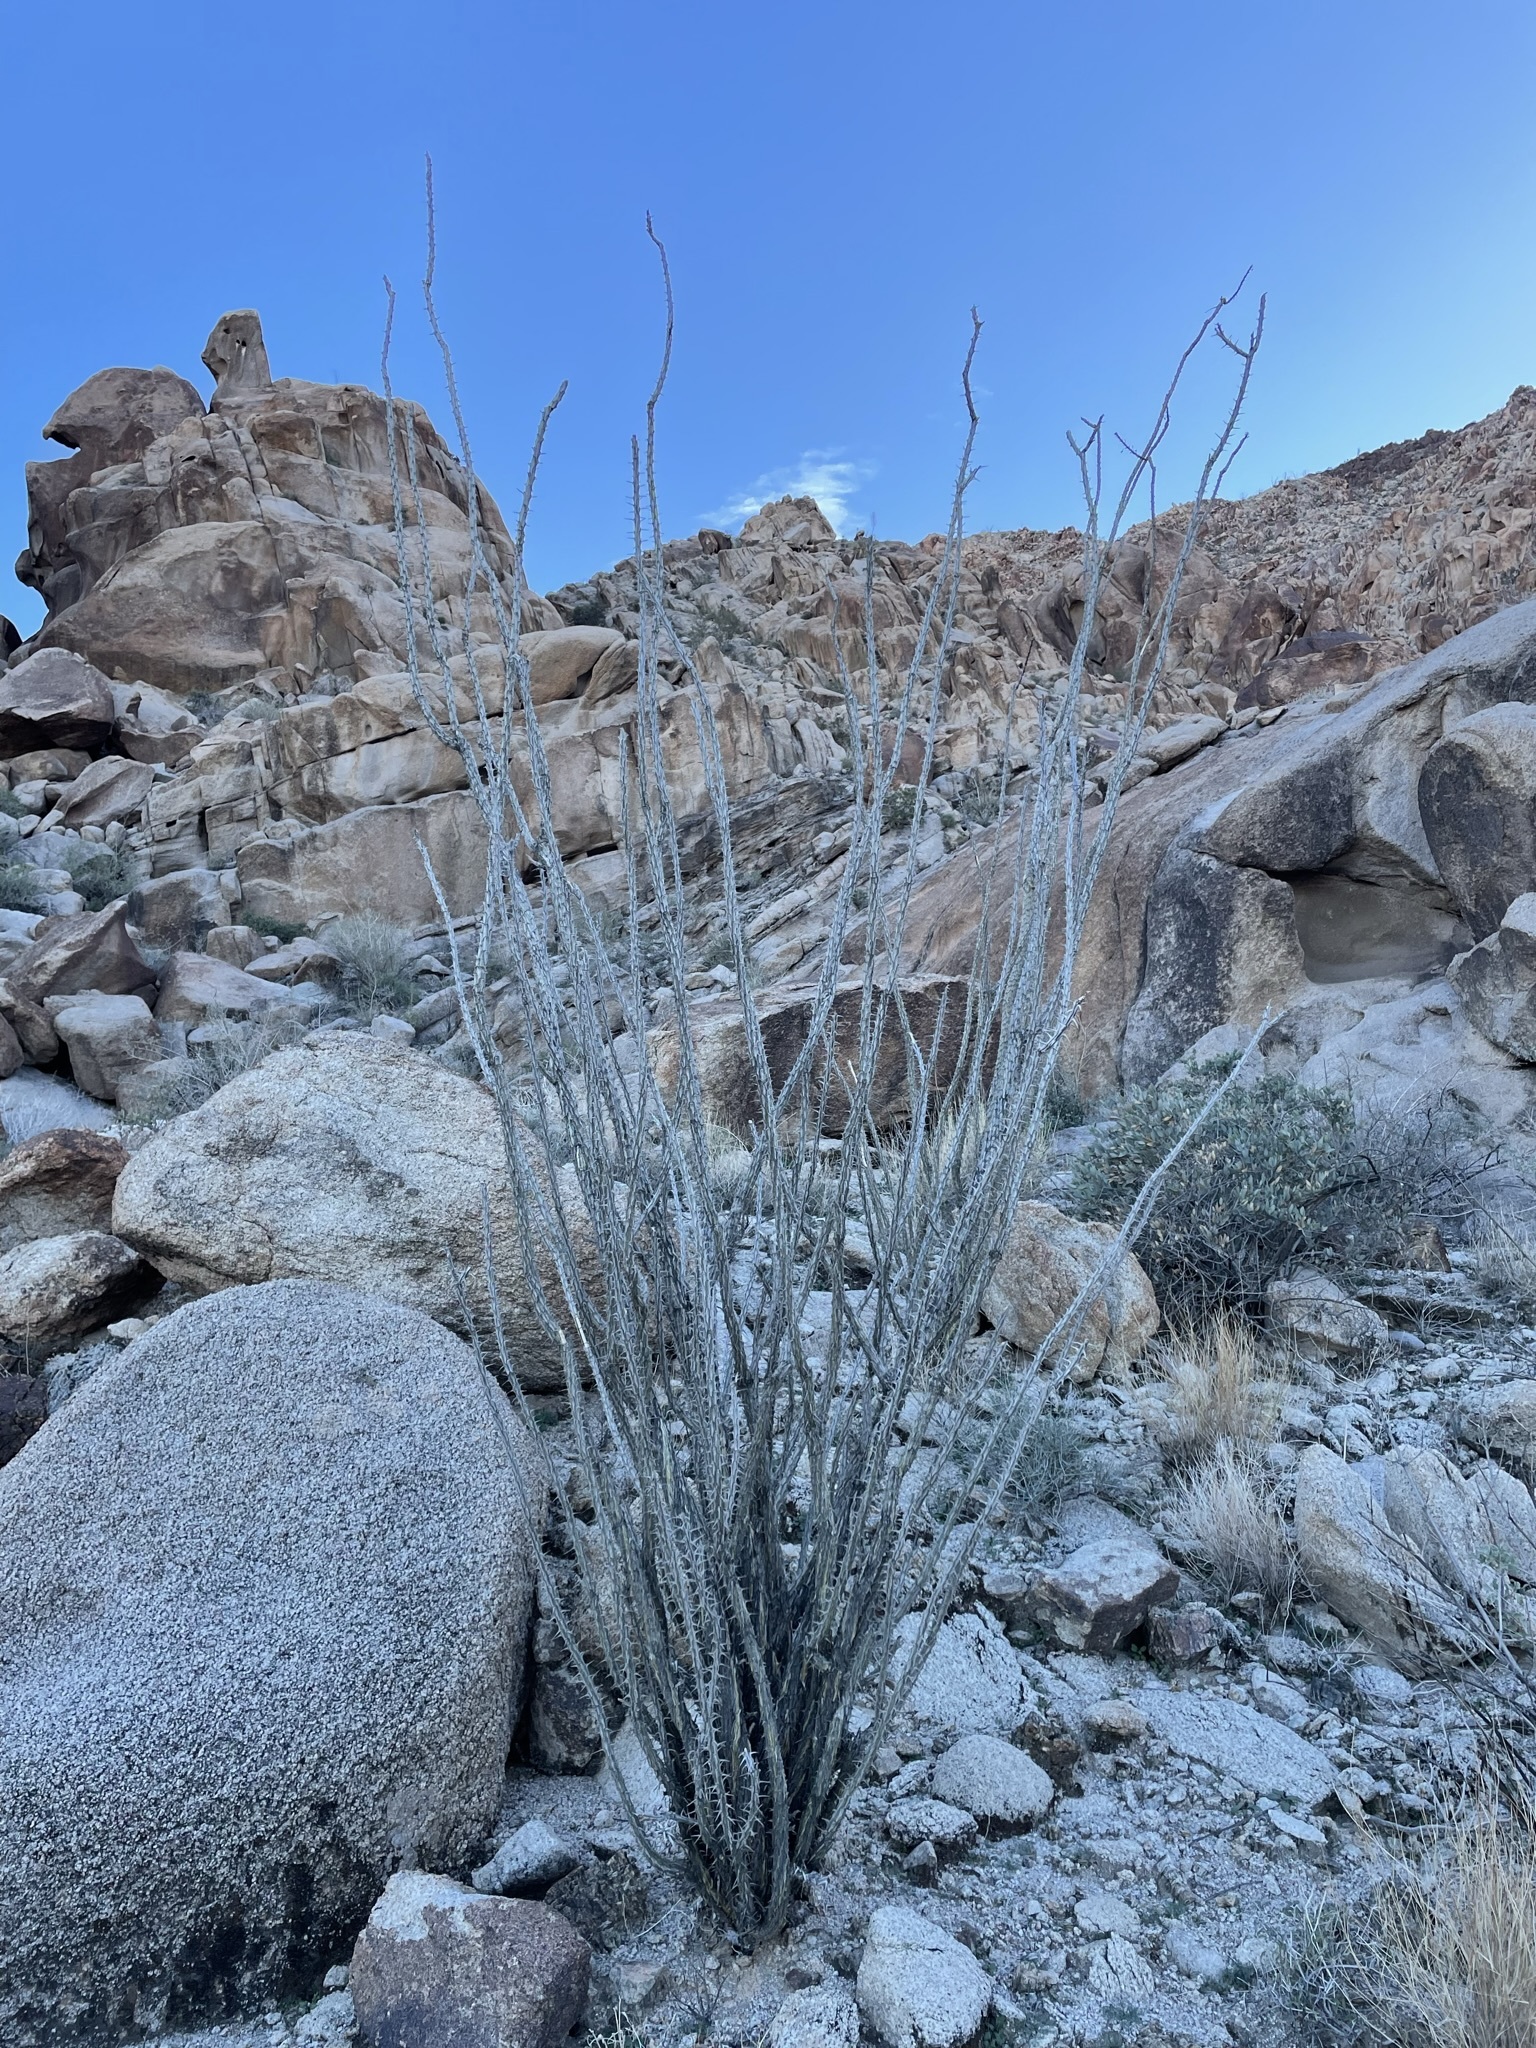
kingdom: Plantae
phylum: Tracheophyta
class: Magnoliopsida
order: Ericales
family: Fouquieriaceae
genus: Fouquieria
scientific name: Fouquieria splendens
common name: Vine-cactus
